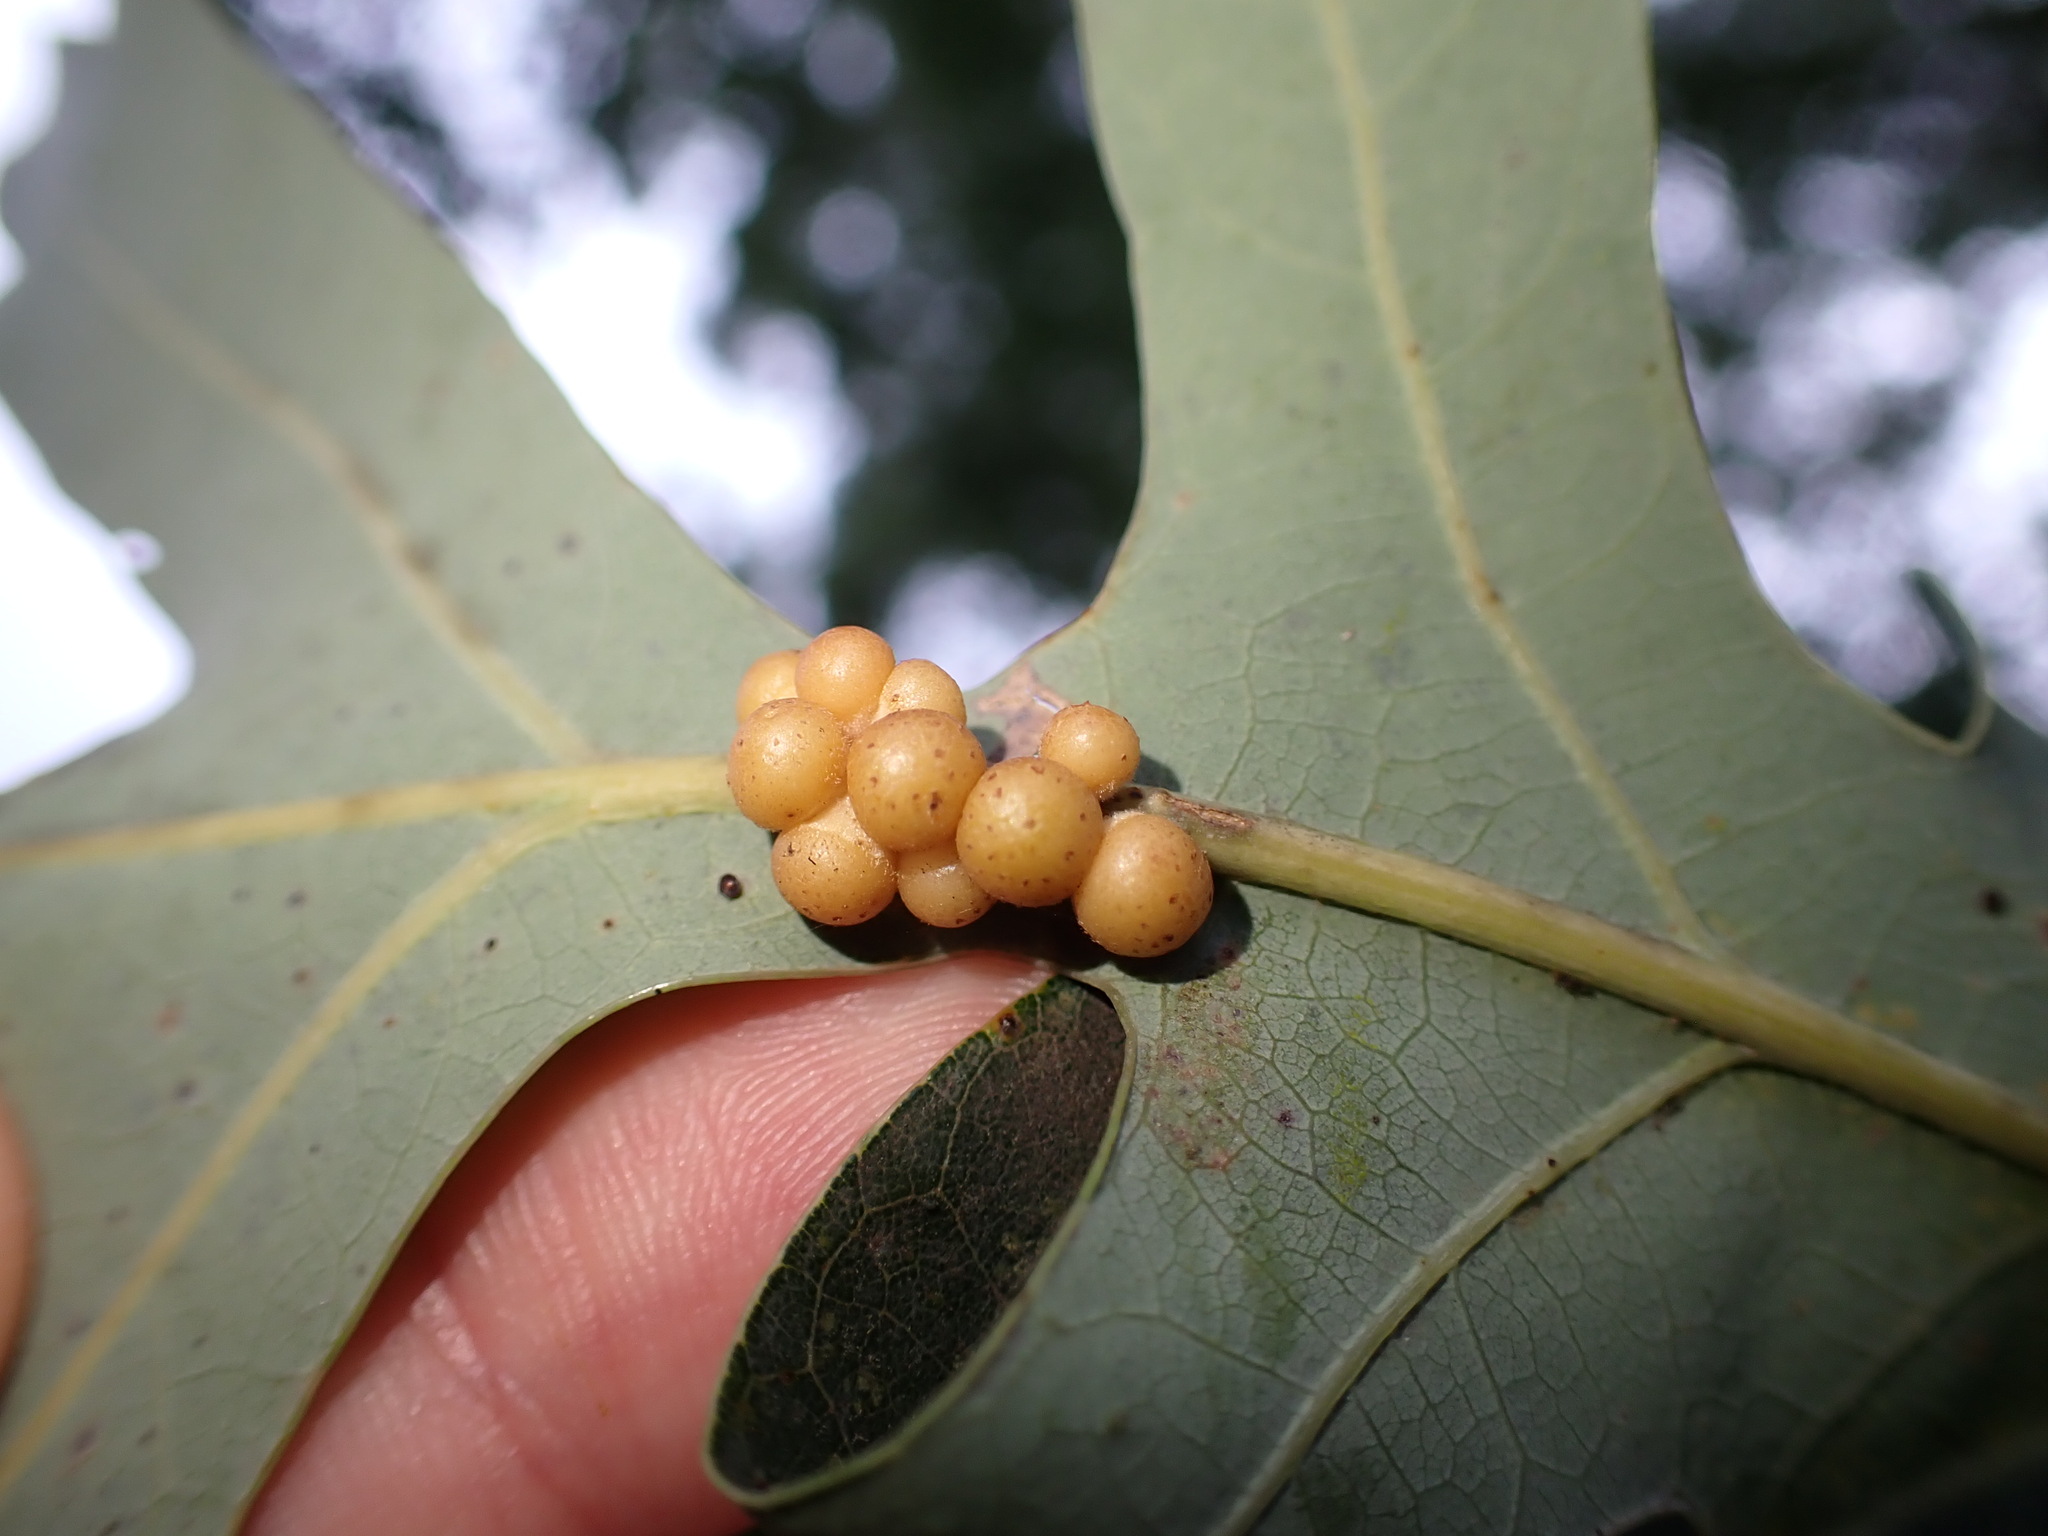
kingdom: Animalia
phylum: Arthropoda
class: Insecta
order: Hymenoptera
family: Cynipidae
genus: Andricus
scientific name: Andricus
